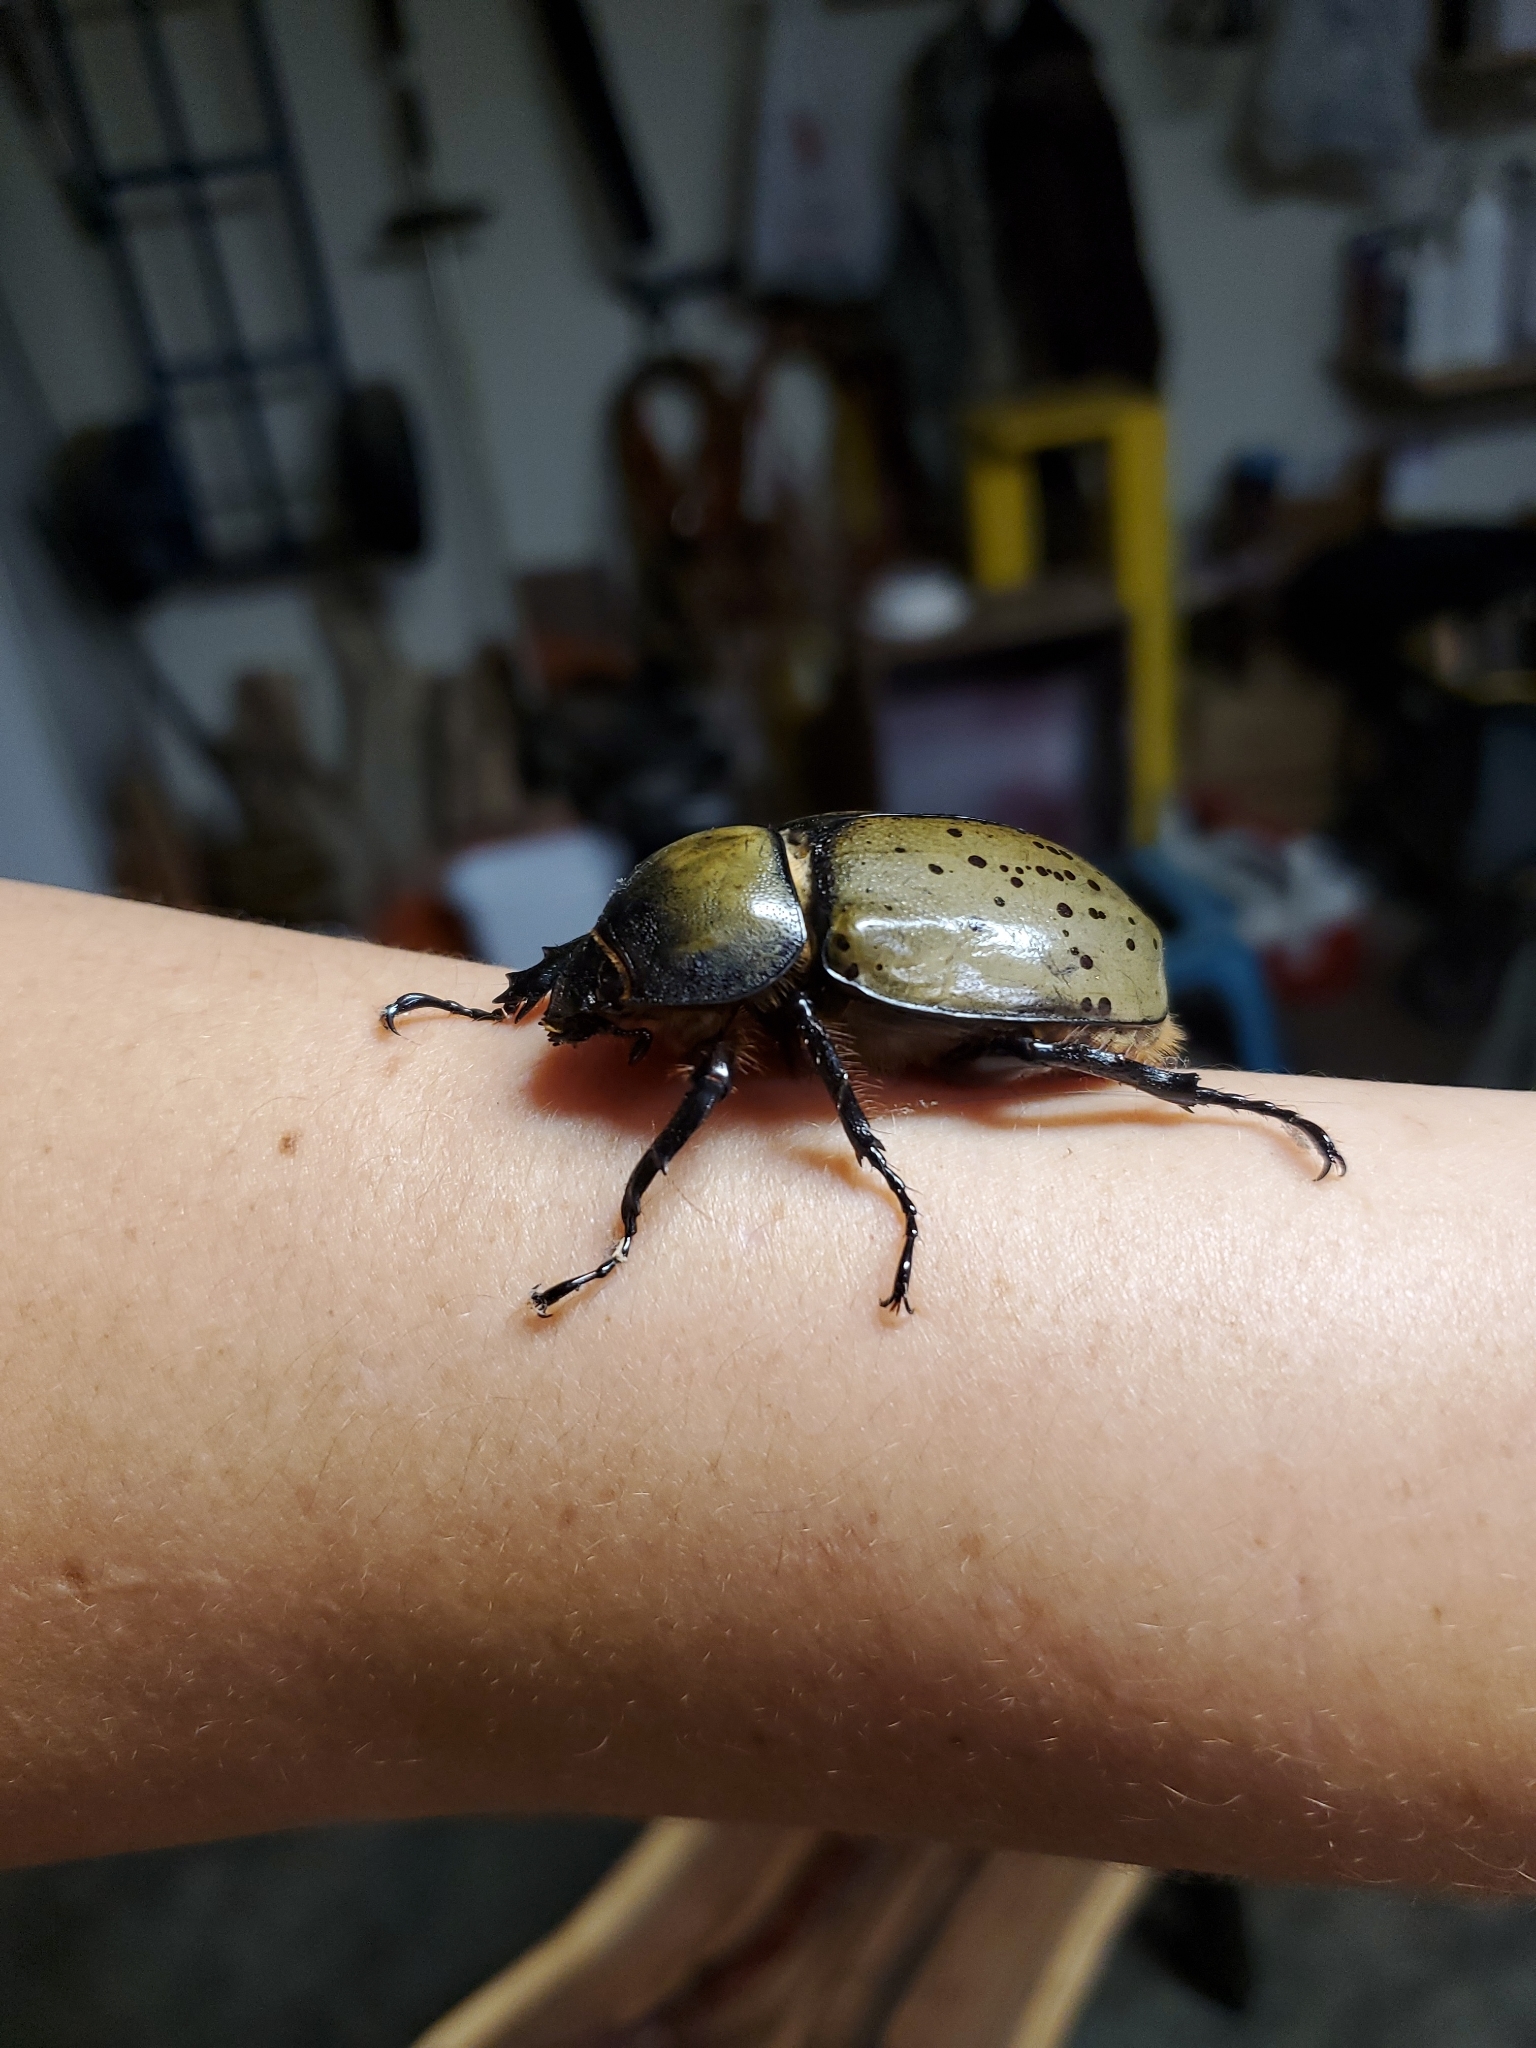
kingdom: Animalia
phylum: Arthropoda
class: Insecta
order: Coleoptera
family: Scarabaeidae
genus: Dynastes
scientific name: Dynastes tityus
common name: Eastern hercules beetle
